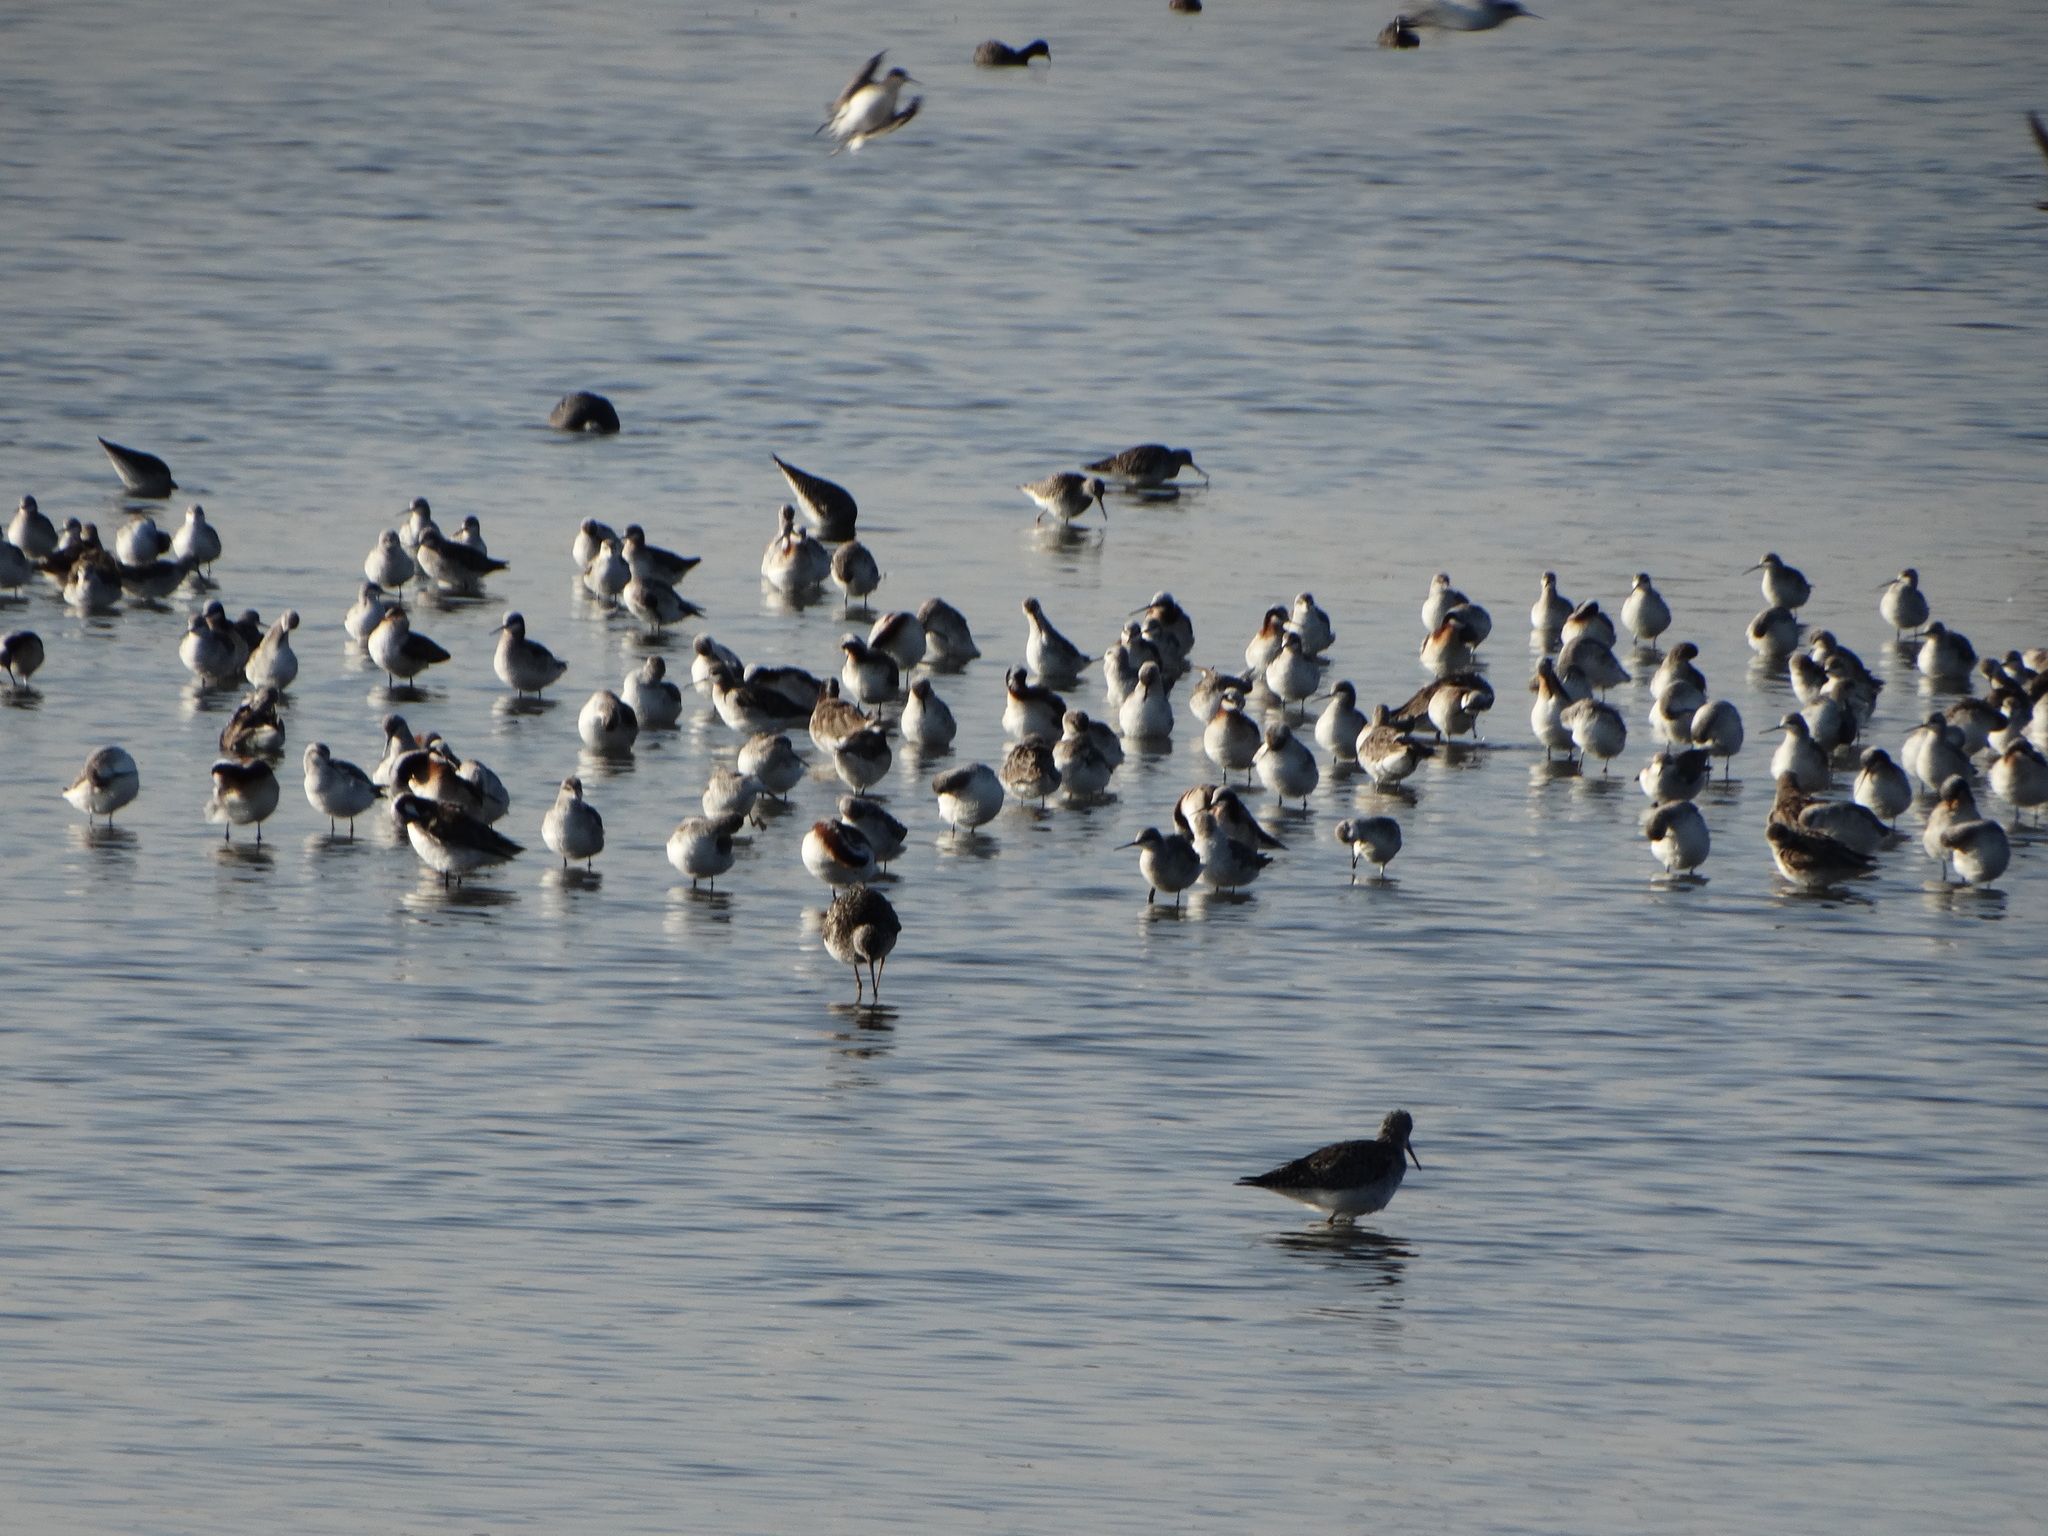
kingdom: Animalia
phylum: Chordata
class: Aves
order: Charadriiformes
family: Scolopacidae
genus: Phalaropus
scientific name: Phalaropus tricolor
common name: Wilson's phalarope
